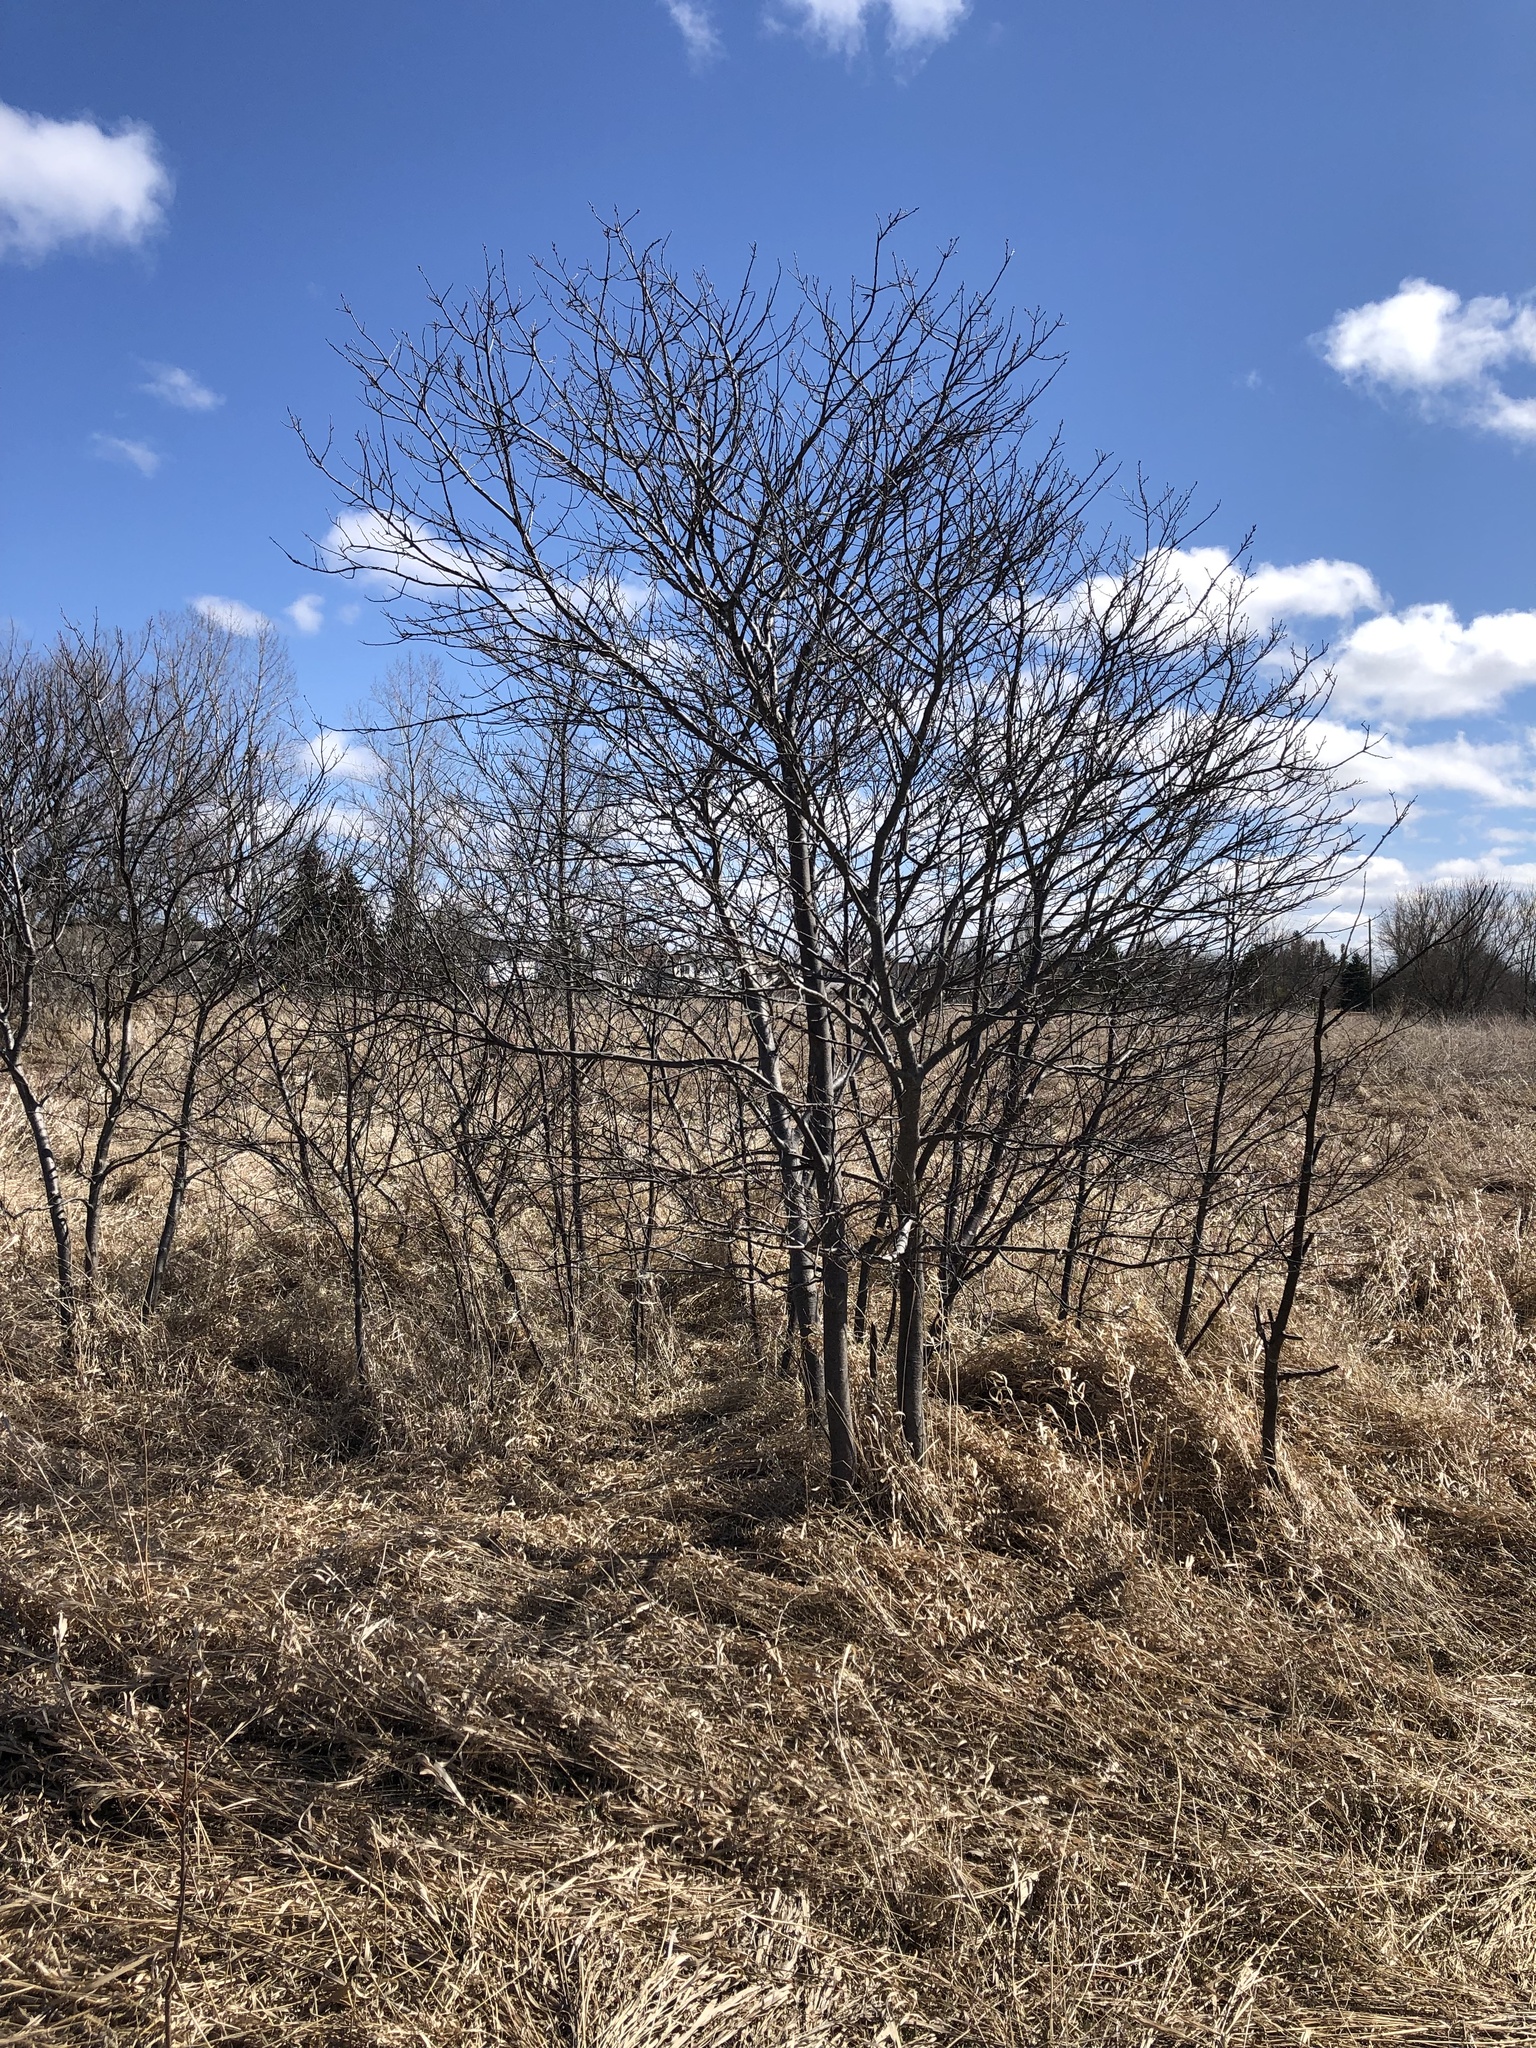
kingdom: Plantae
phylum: Tracheophyta
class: Magnoliopsida
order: Rosales
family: Rhamnaceae
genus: Rhamnus
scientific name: Rhamnus cathartica
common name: Common buckthorn
